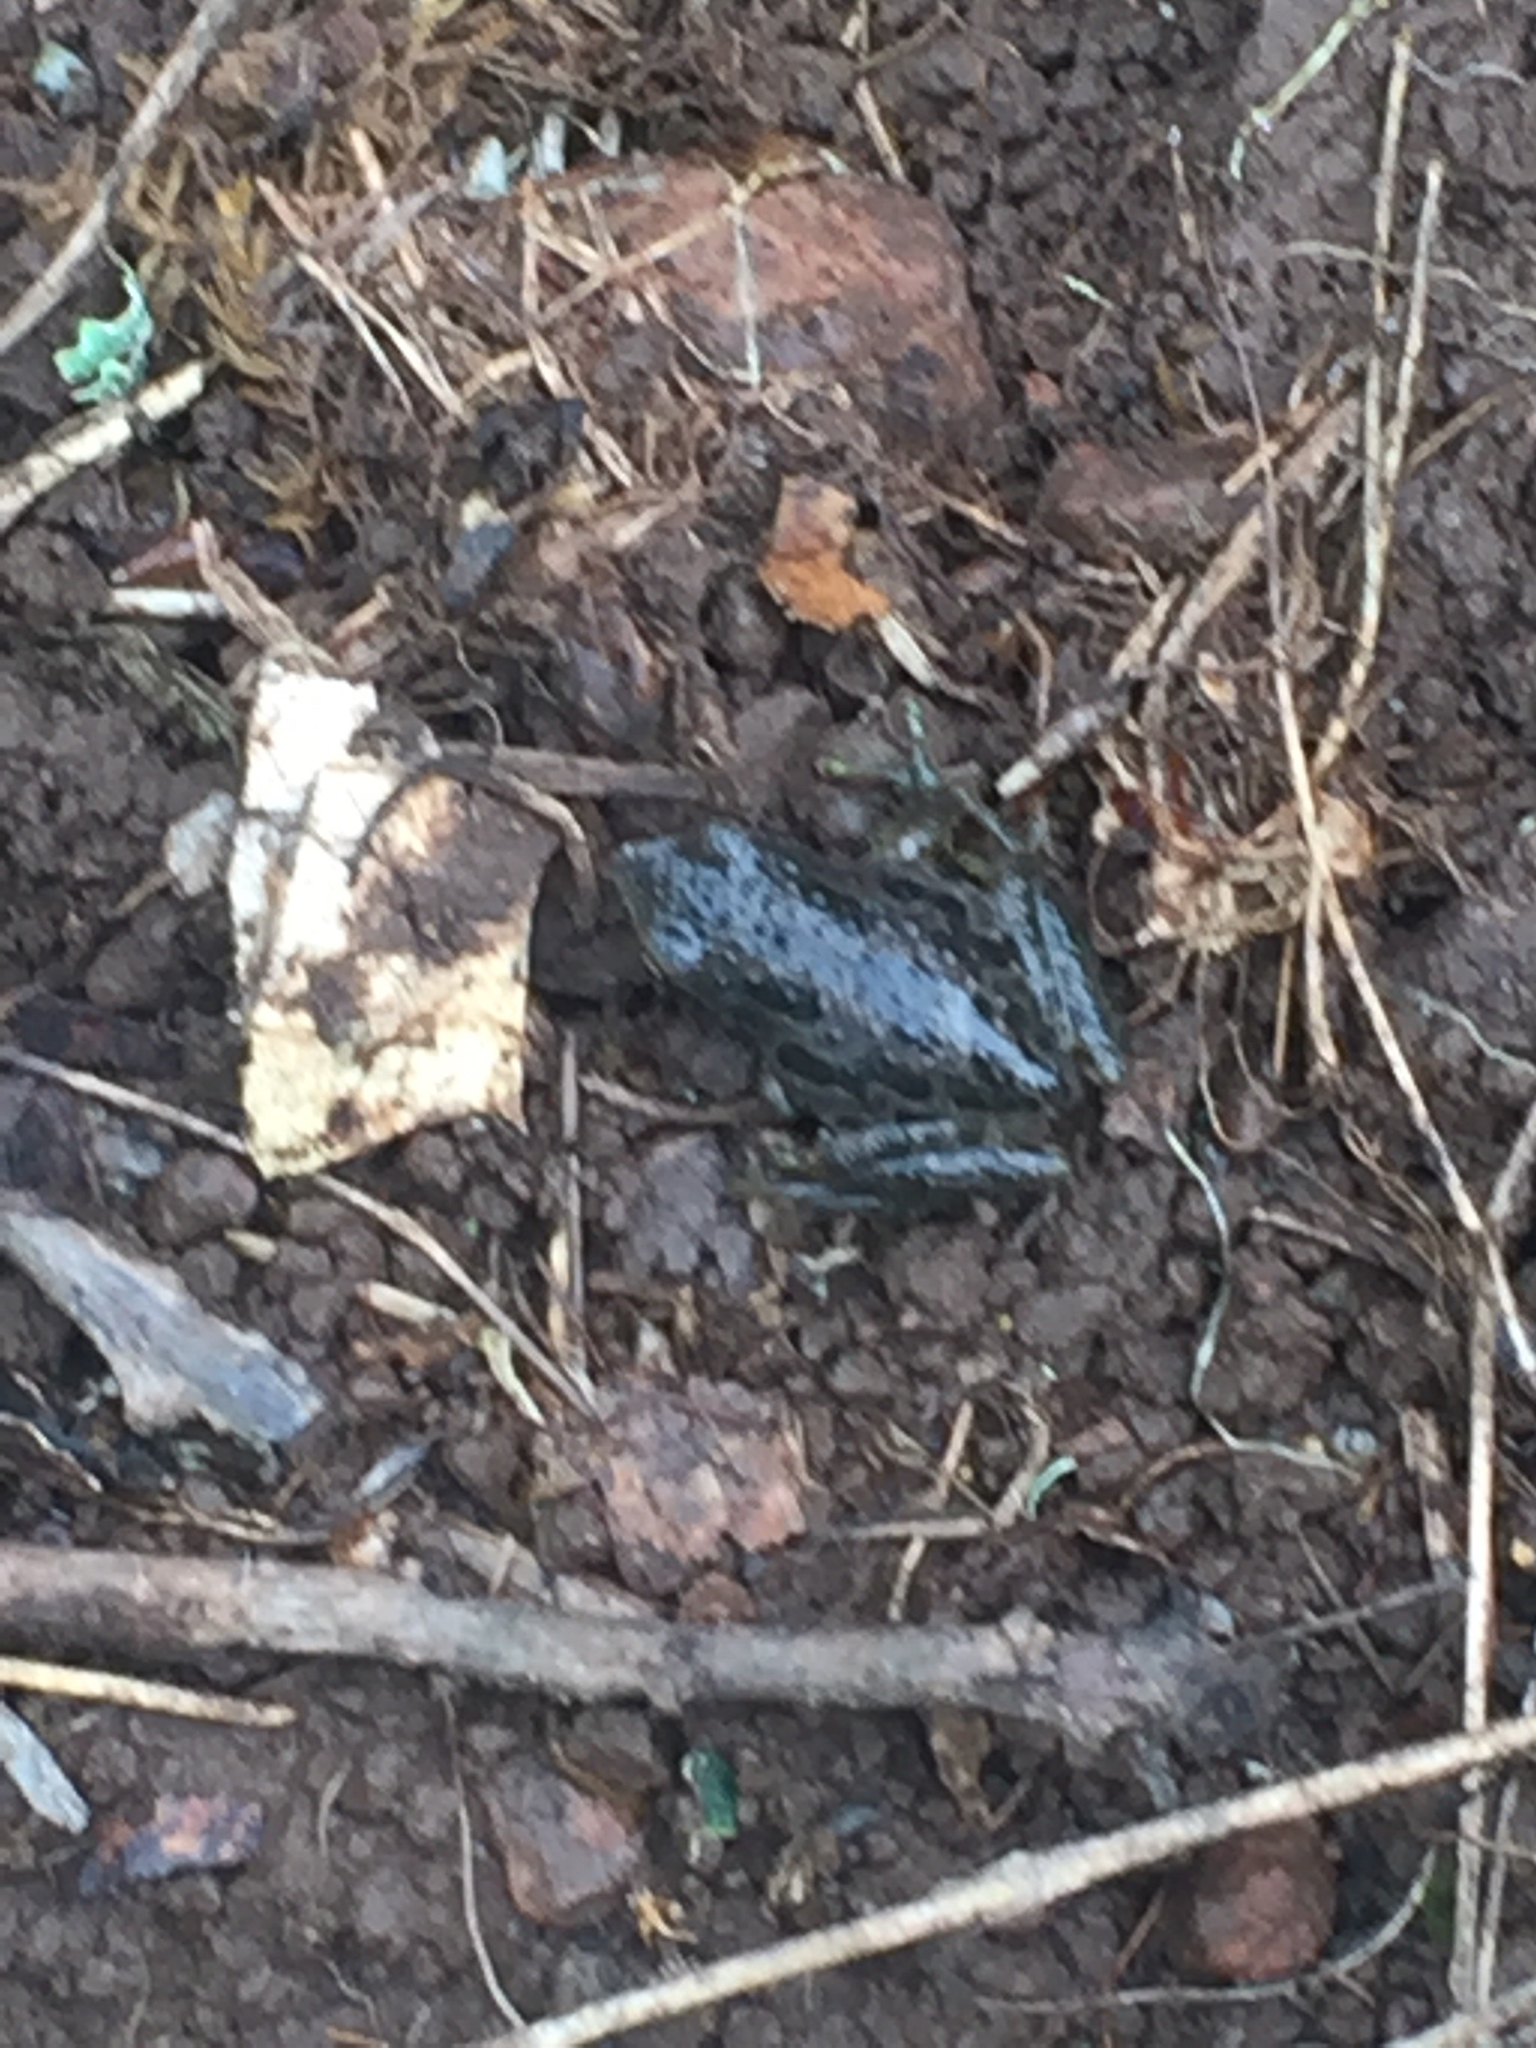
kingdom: Animalia
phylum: Chordata
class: Amphibia
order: Anura
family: Hylidae
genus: Pseudacris
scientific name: Pseudacris regilla
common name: Pacific chorus frog
